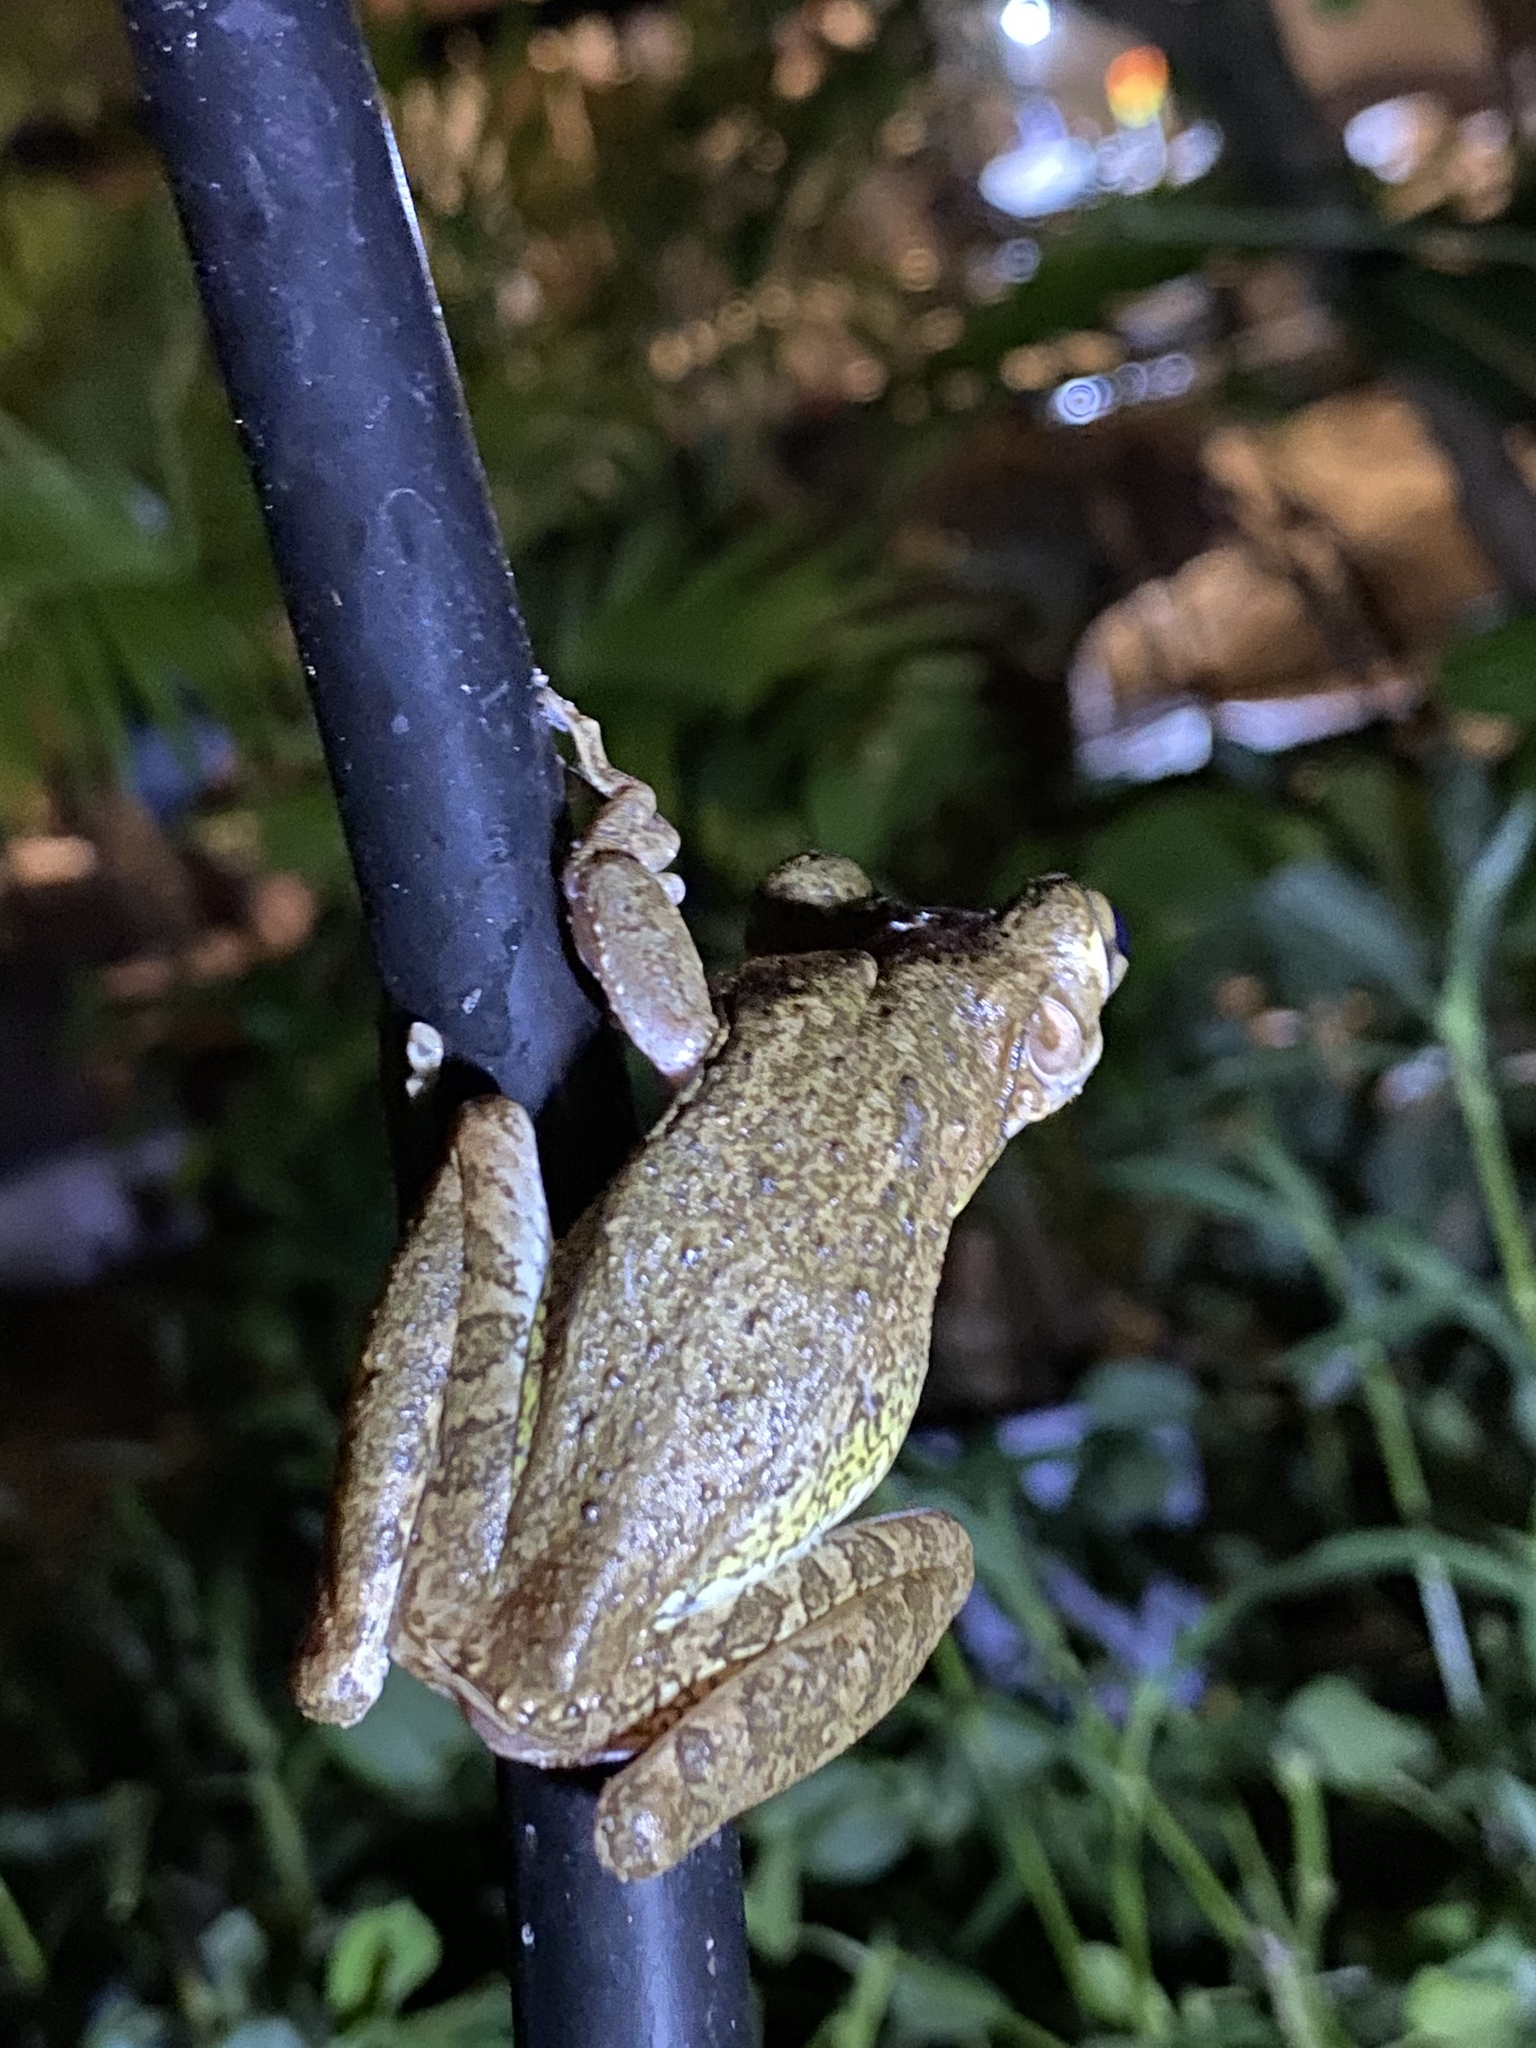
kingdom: Animalia
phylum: Chordata
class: Amphibia
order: Anura
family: Hylidae
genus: Osteopilus
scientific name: Osteopilus septentrionalis
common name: Cuban treefrog
